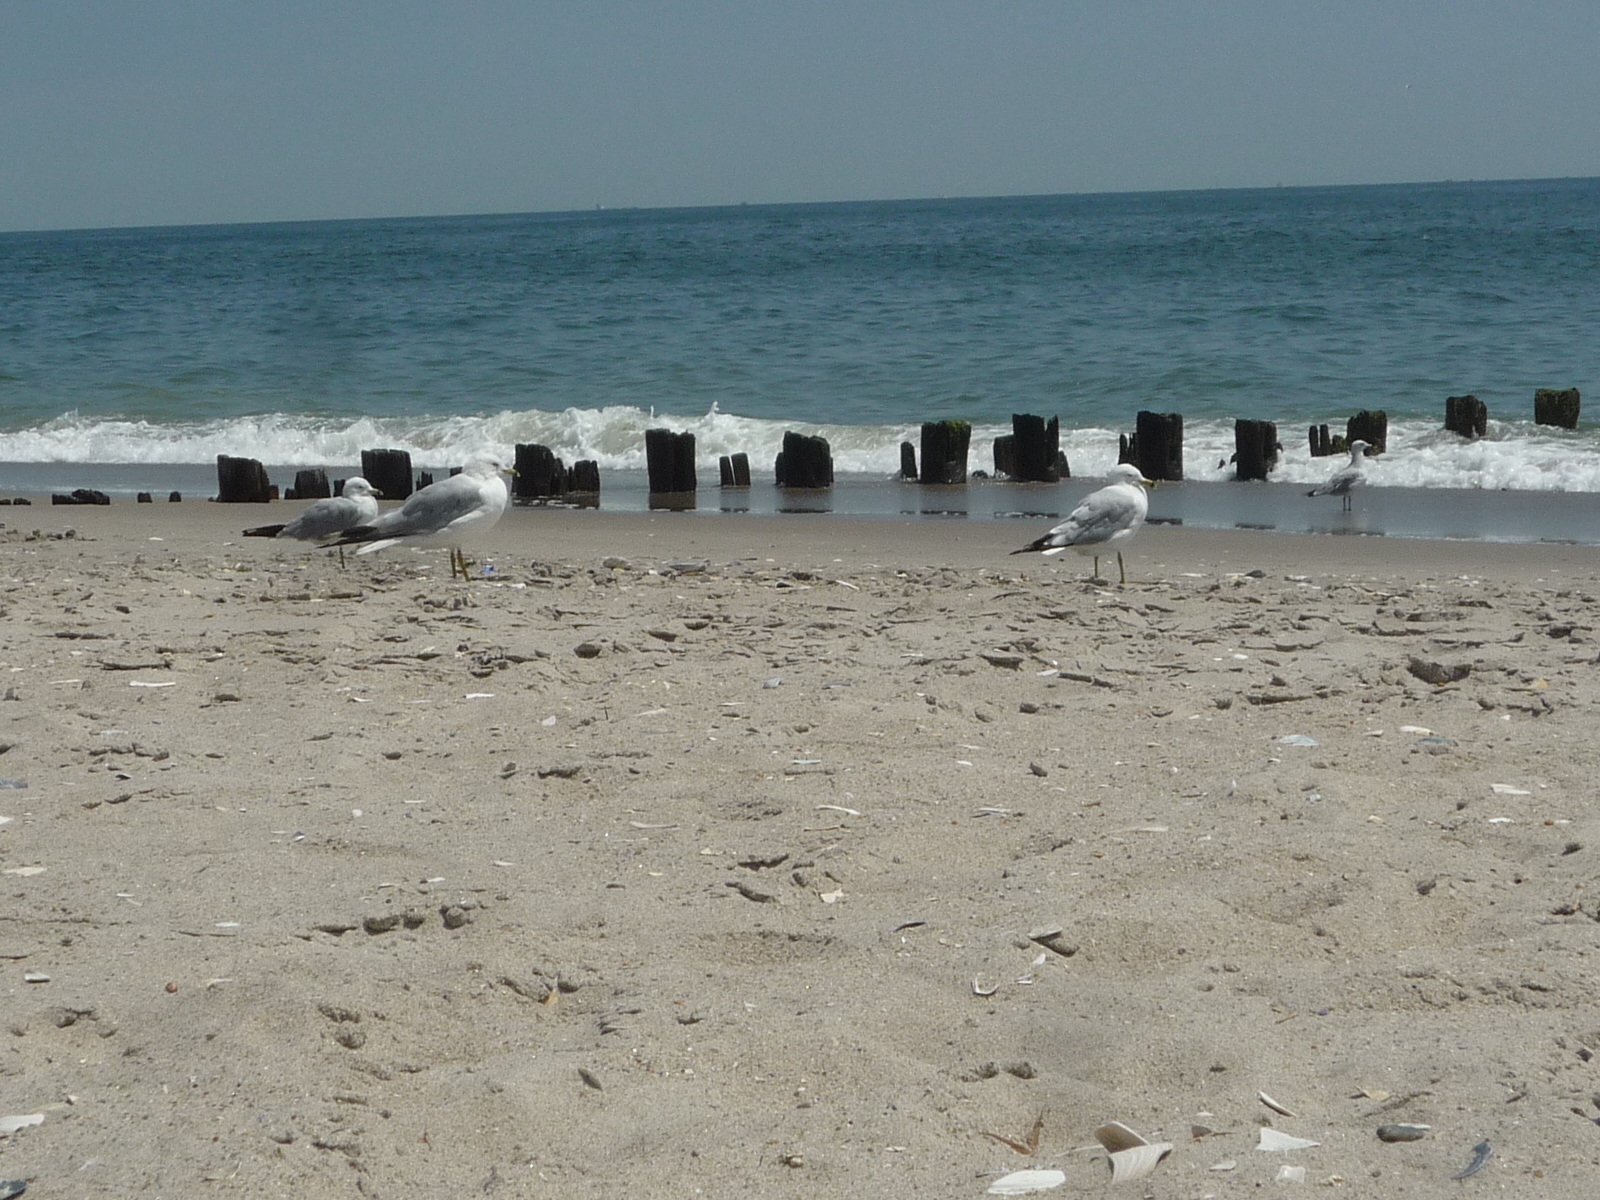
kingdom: Animalia
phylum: Chordata
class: Aves
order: Charadriiformes
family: Laridae
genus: Larus
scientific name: Larus delawarensis
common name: Ring-billed gull
